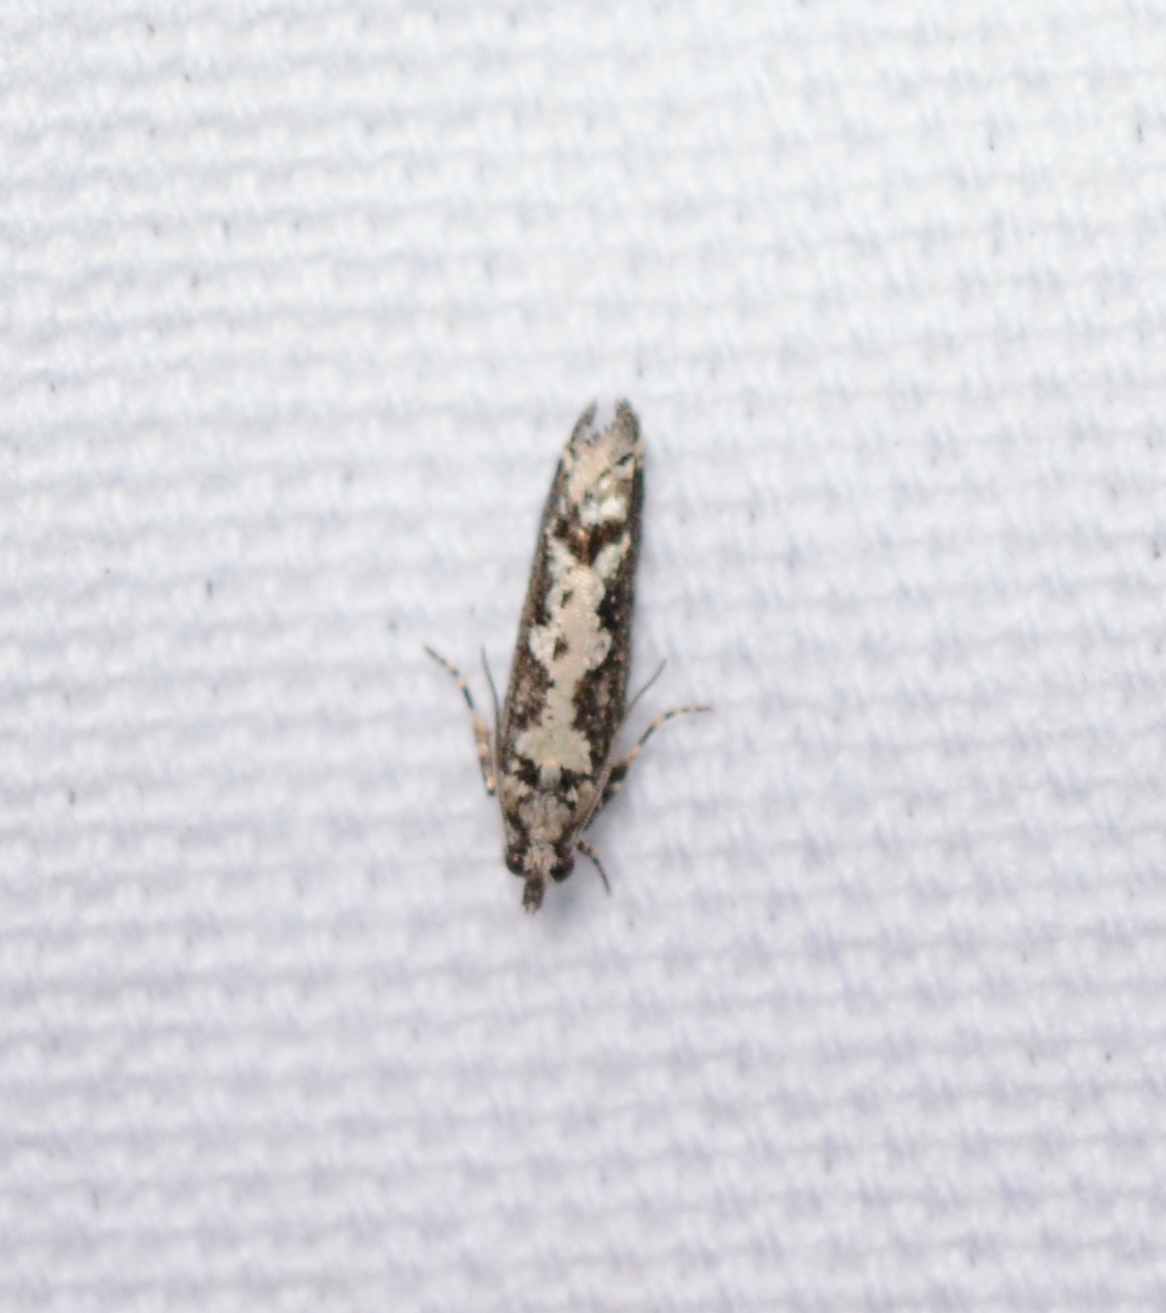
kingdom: Animalia
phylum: Arthropoda
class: Insecta
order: Lepidoptera
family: Tortricidae
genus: Chimoptesis
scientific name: Chimoptesis pennsylvaniana
